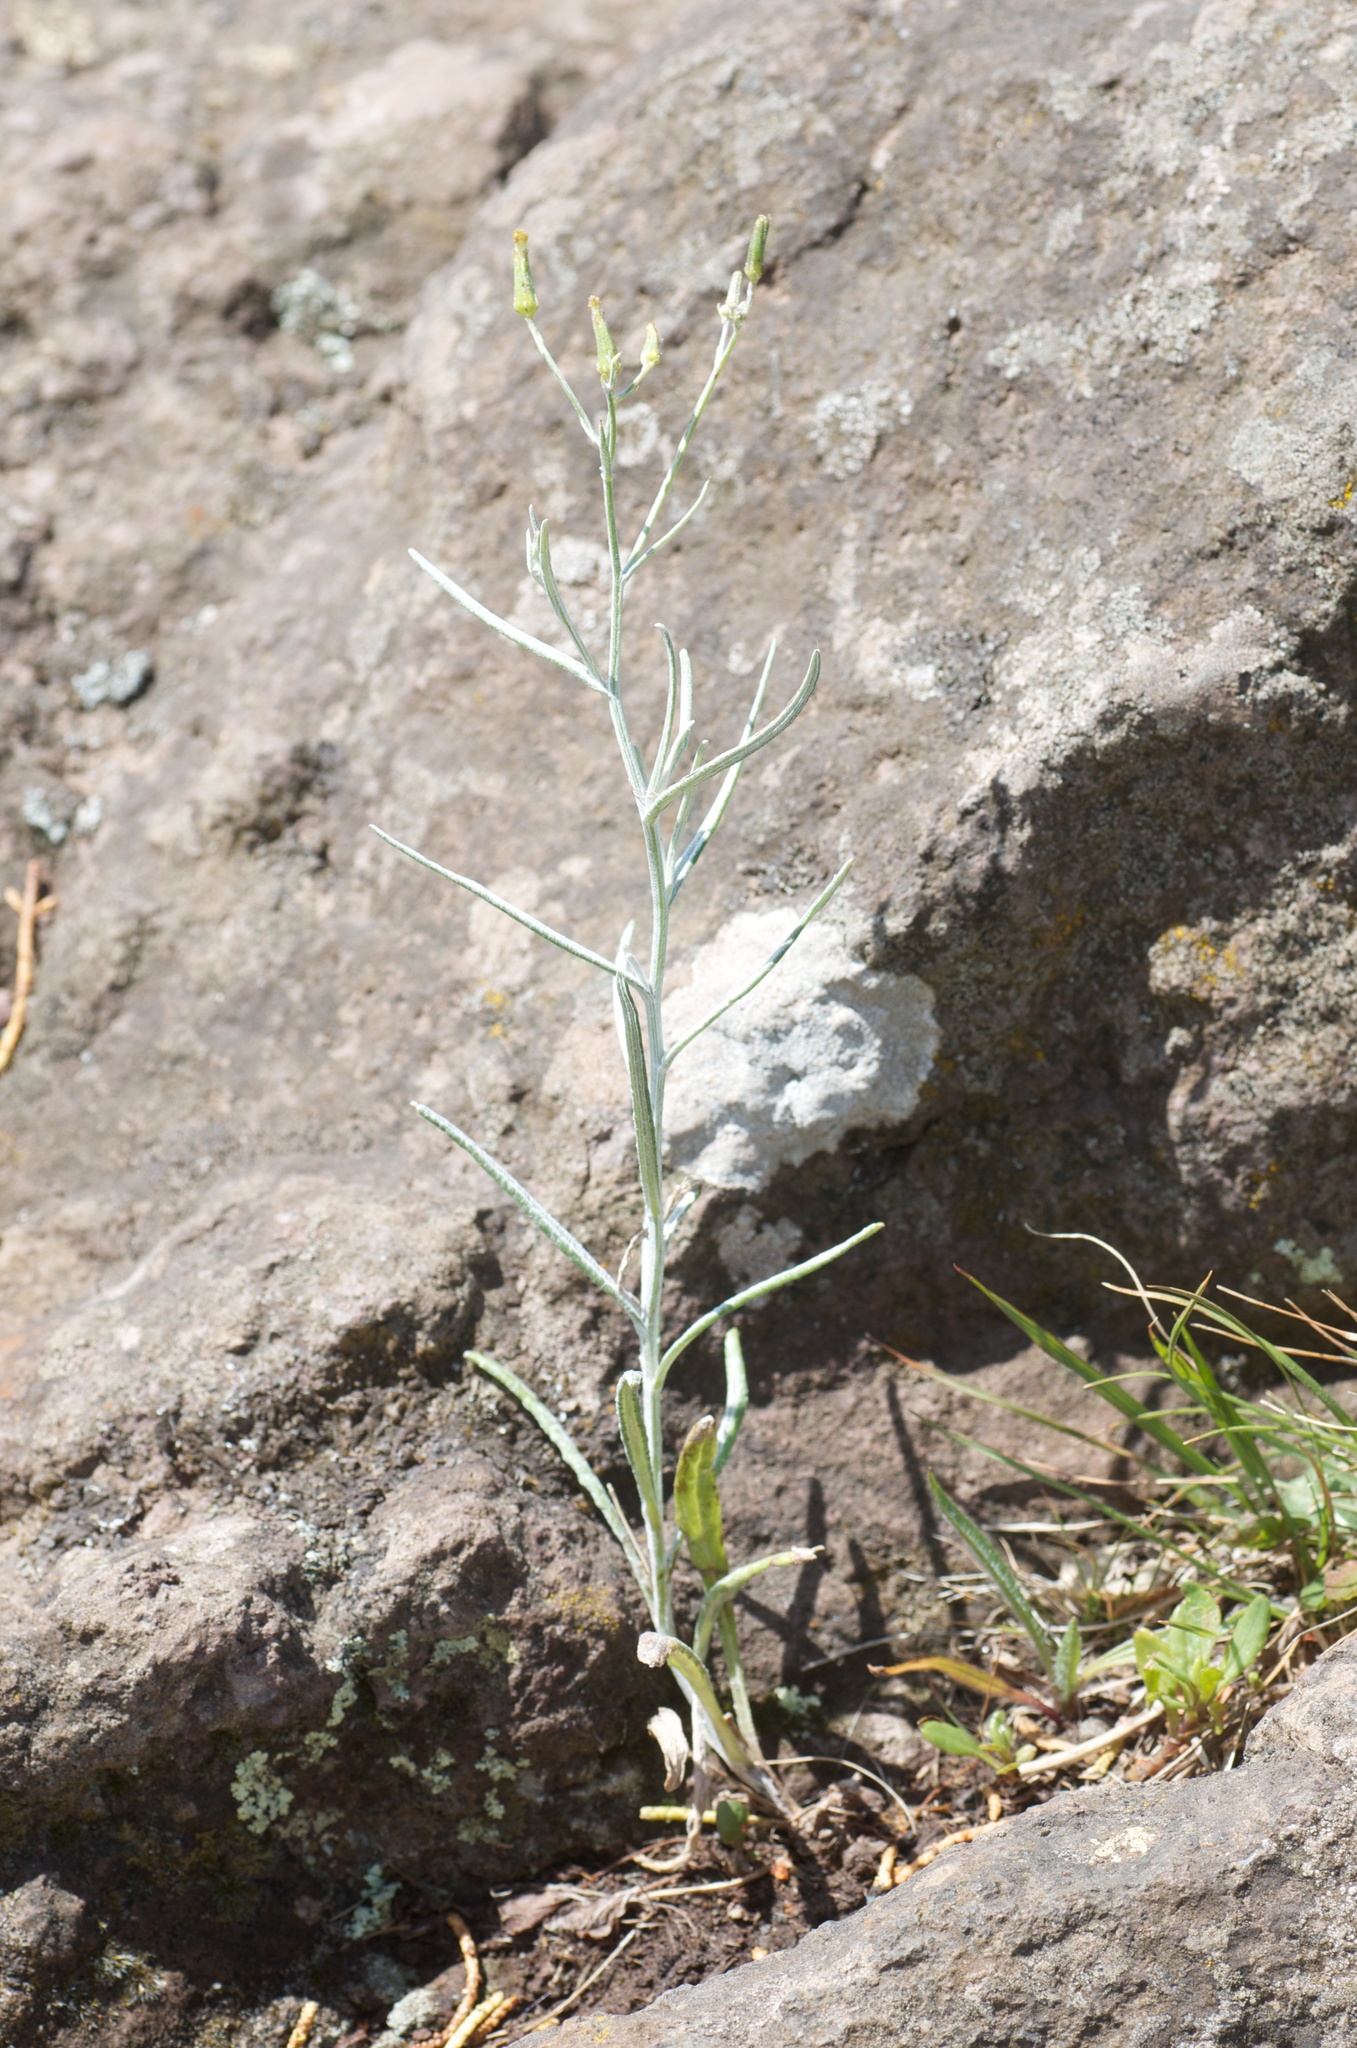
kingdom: Plantae
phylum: Tracheophyta
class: Magnoliopsida
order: Asterales
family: Asteraceae
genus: Senecio
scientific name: Senecio quadridentatus
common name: Cotton fireweed
